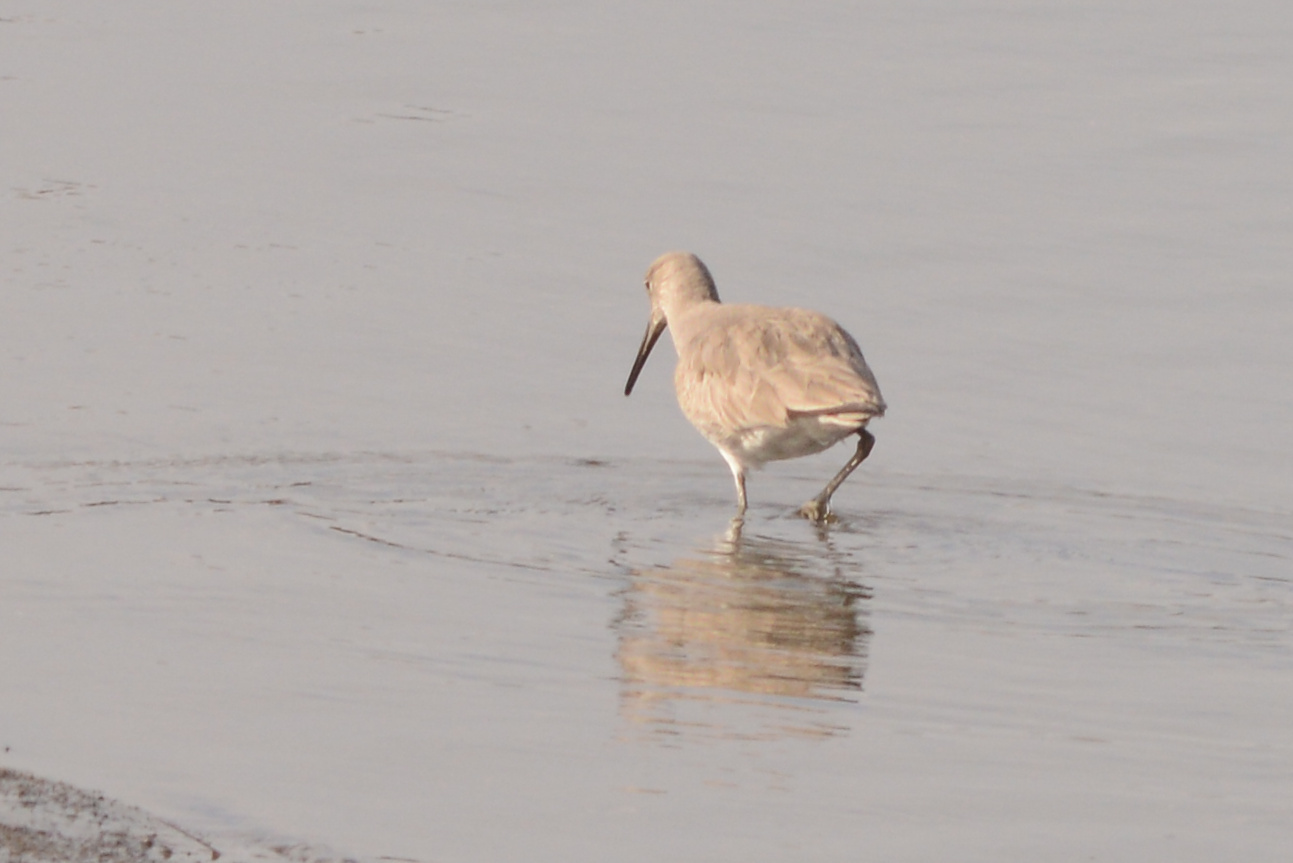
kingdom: Animalia
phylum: Chordata
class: Aves
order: Charadriiformes
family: Scolopacidae
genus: Tringa
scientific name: Tringa semipalmata
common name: Willet
